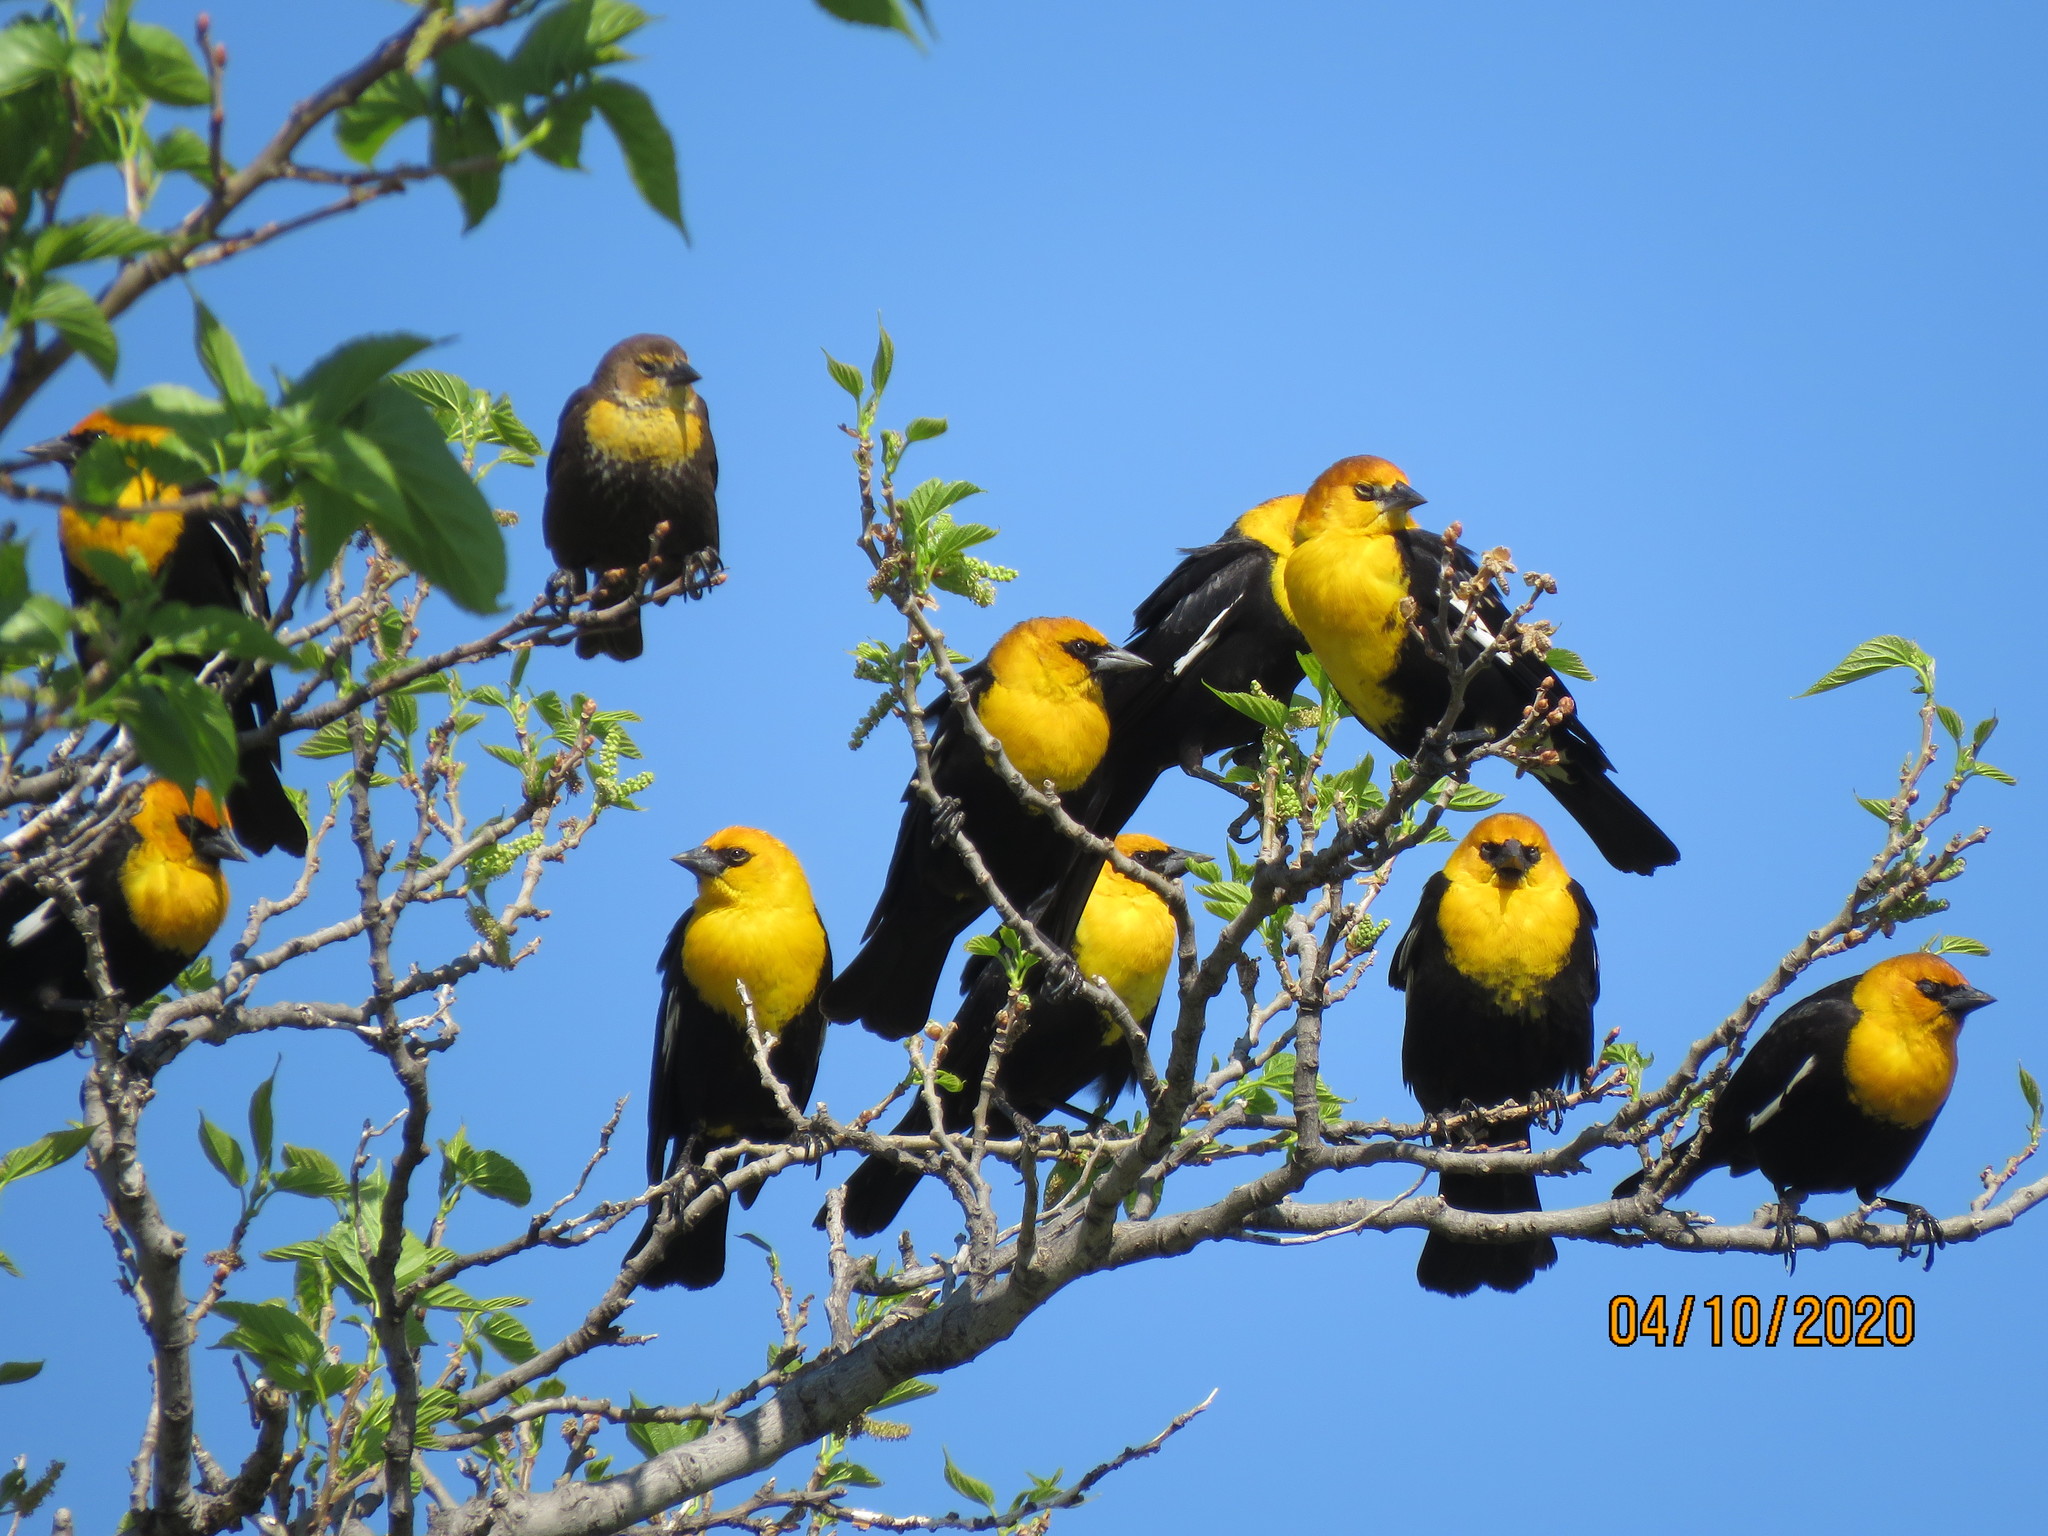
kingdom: Animalia
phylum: Chordata
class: Aves
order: Passeriformes
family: Icteridae
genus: Xanthocephalus
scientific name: Xanthocephalus xanthocephalus
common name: Yellow-headed blackbird
